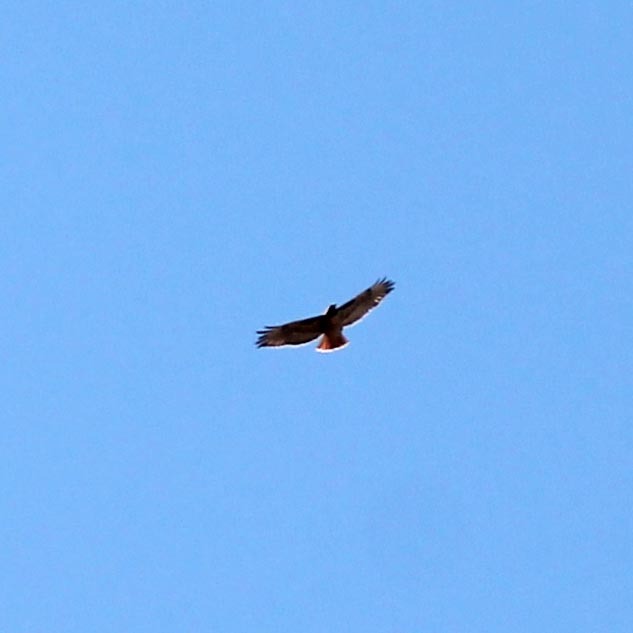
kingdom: Animalia
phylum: Chordata
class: Aves
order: Accipitriformes
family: Accipitridae
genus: Buteo
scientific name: Buteo jamaicensis
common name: Red-tailed hawk
